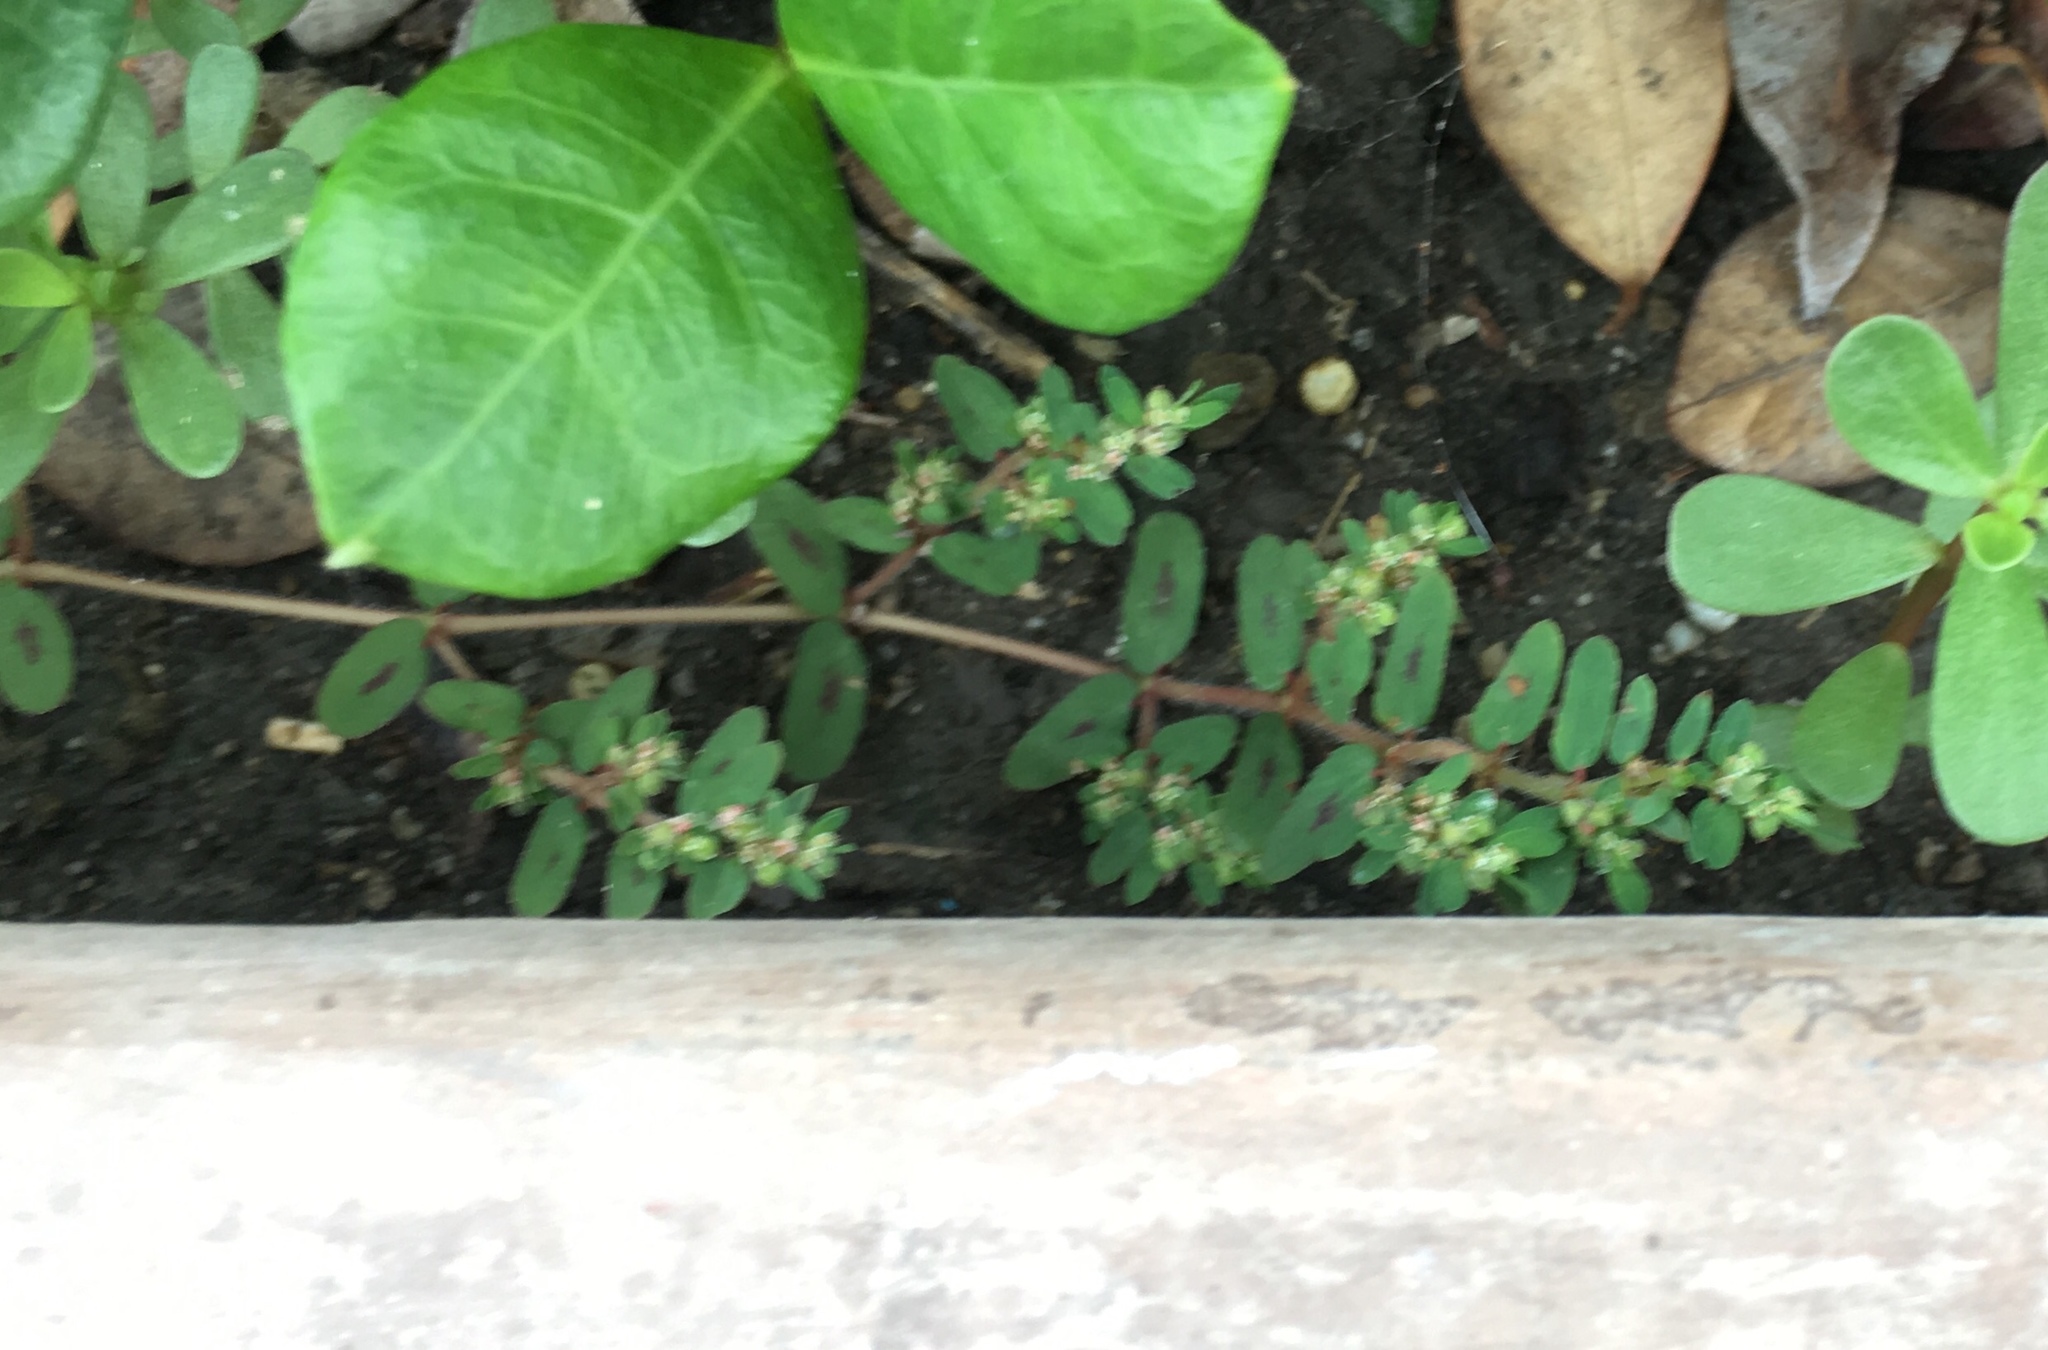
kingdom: Plantae
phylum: Tracheophyta
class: Magnoliopsida
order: Malpighiales
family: Euphorbiaceae
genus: Euphorbia
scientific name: Euphorbia maculata
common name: Spotted spurge
